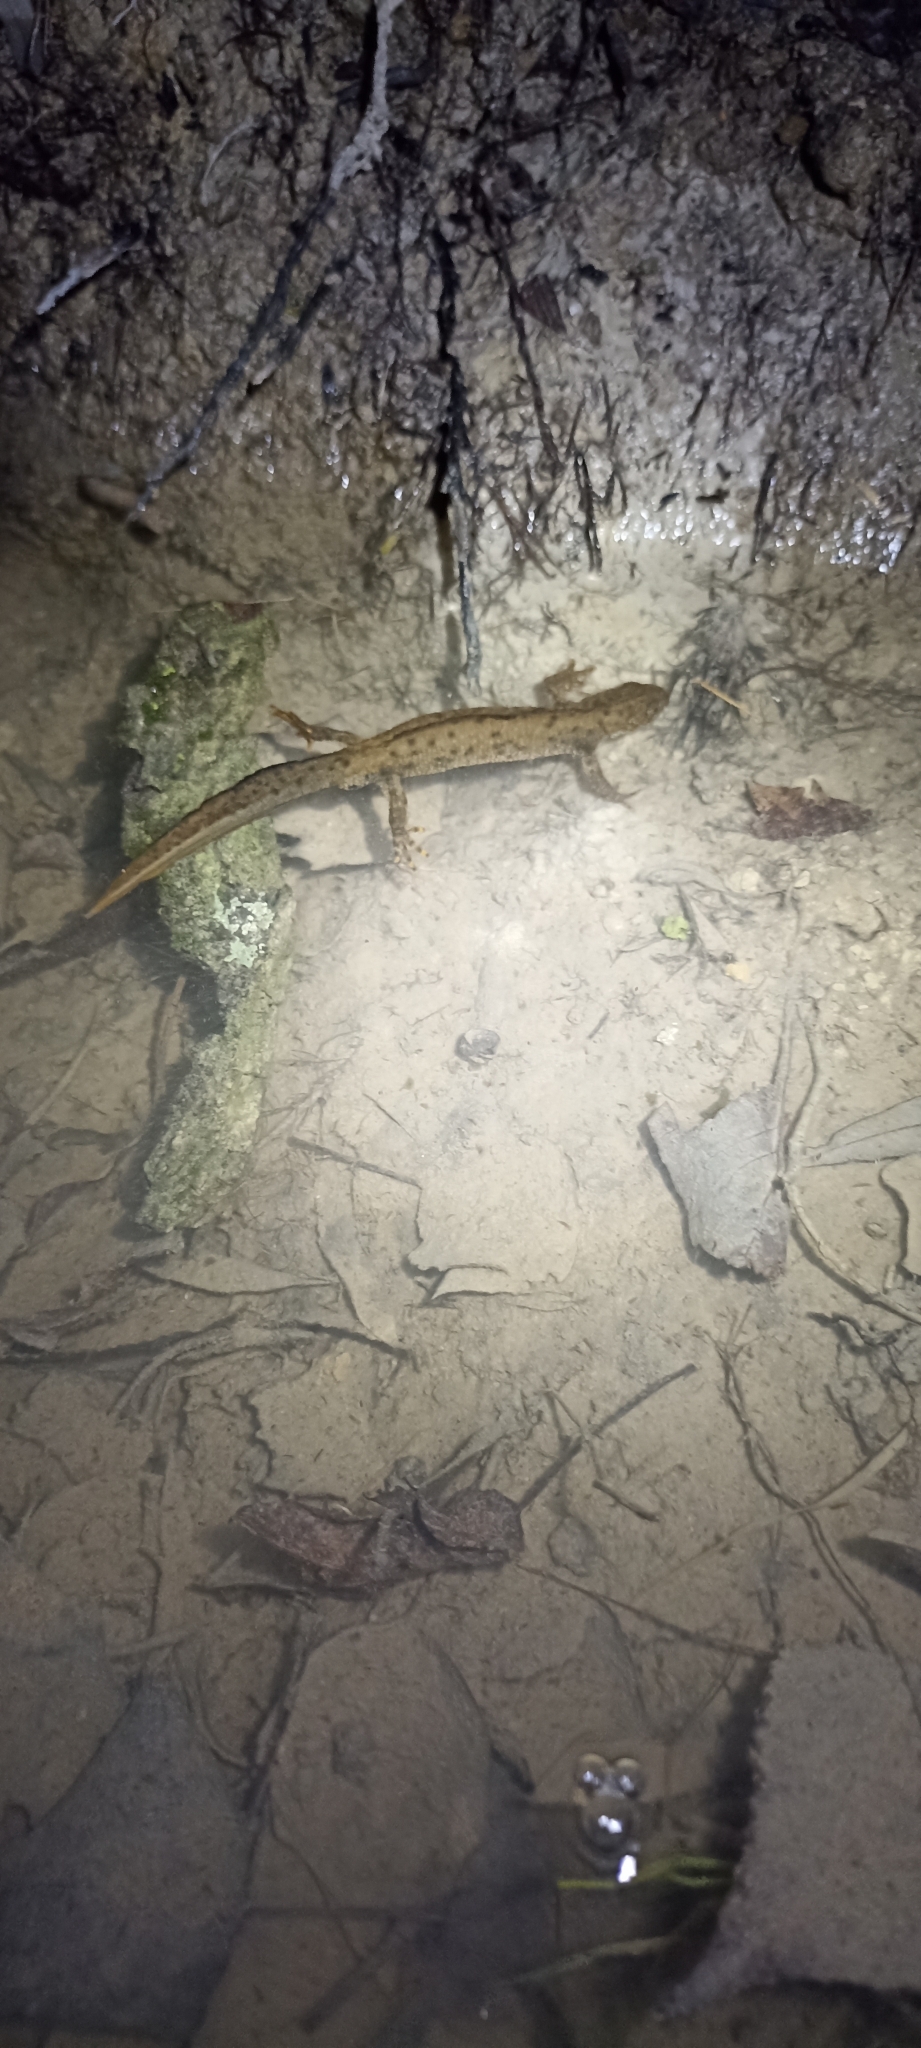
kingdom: Animalia
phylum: Chordata
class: Amphibia
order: Caudata
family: Salamandridae
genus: Triturus
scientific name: Triturus cristatus
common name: Crested newt
